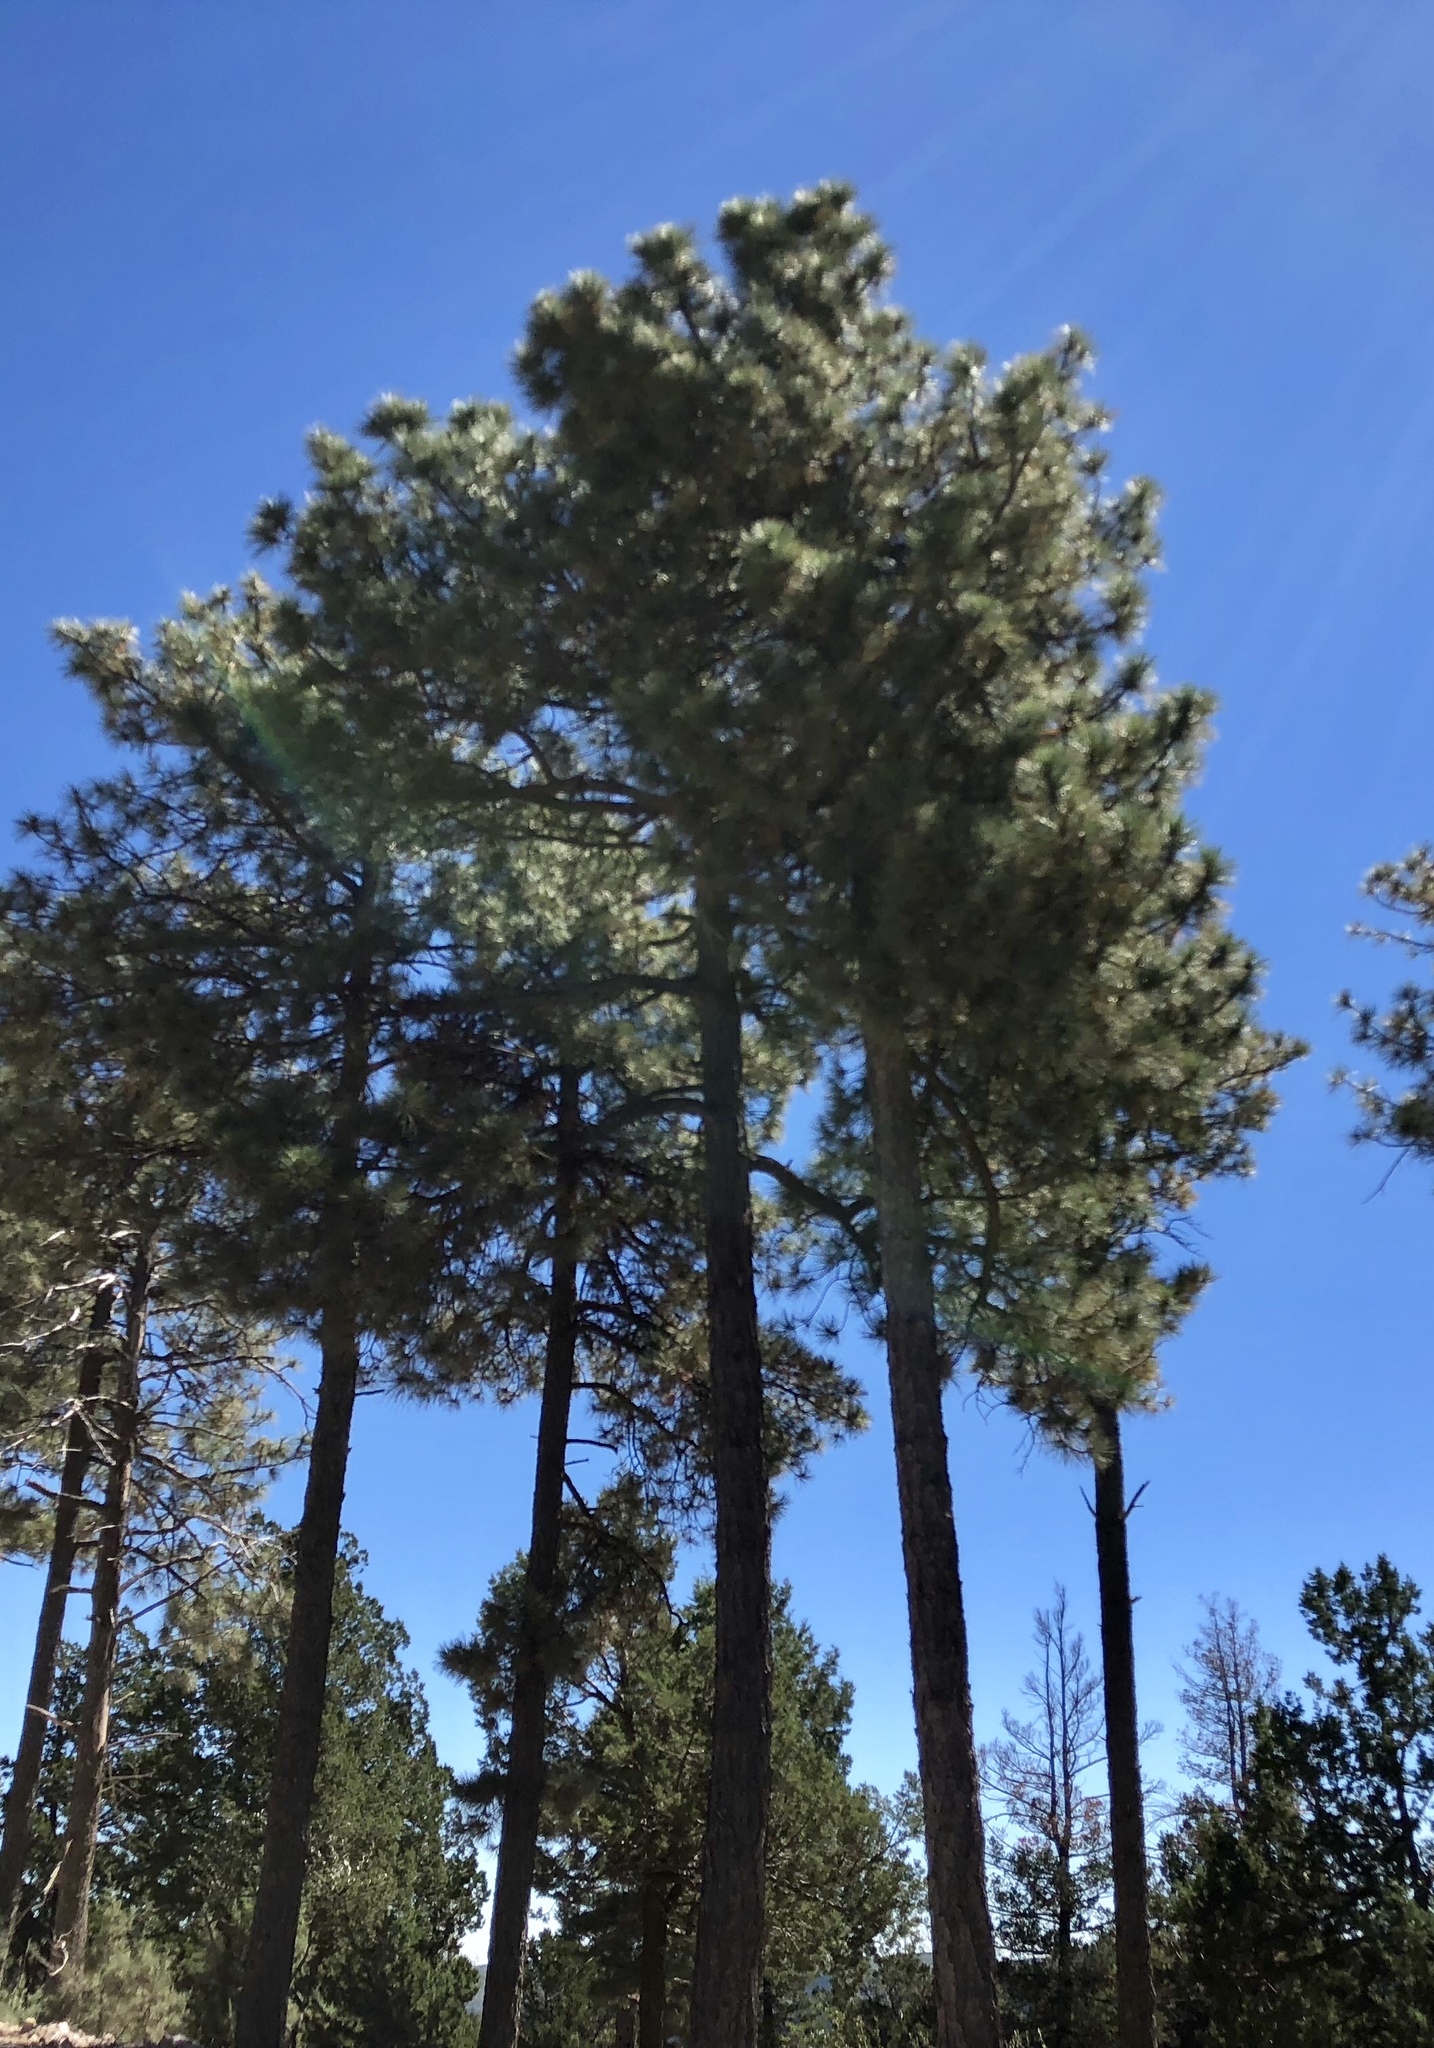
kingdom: Plantae
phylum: Tracheophyta
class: Pinopsida
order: Pinales
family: Pinaceae
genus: Pinus
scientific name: Pinus ponderosa
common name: Western yellow-pine
